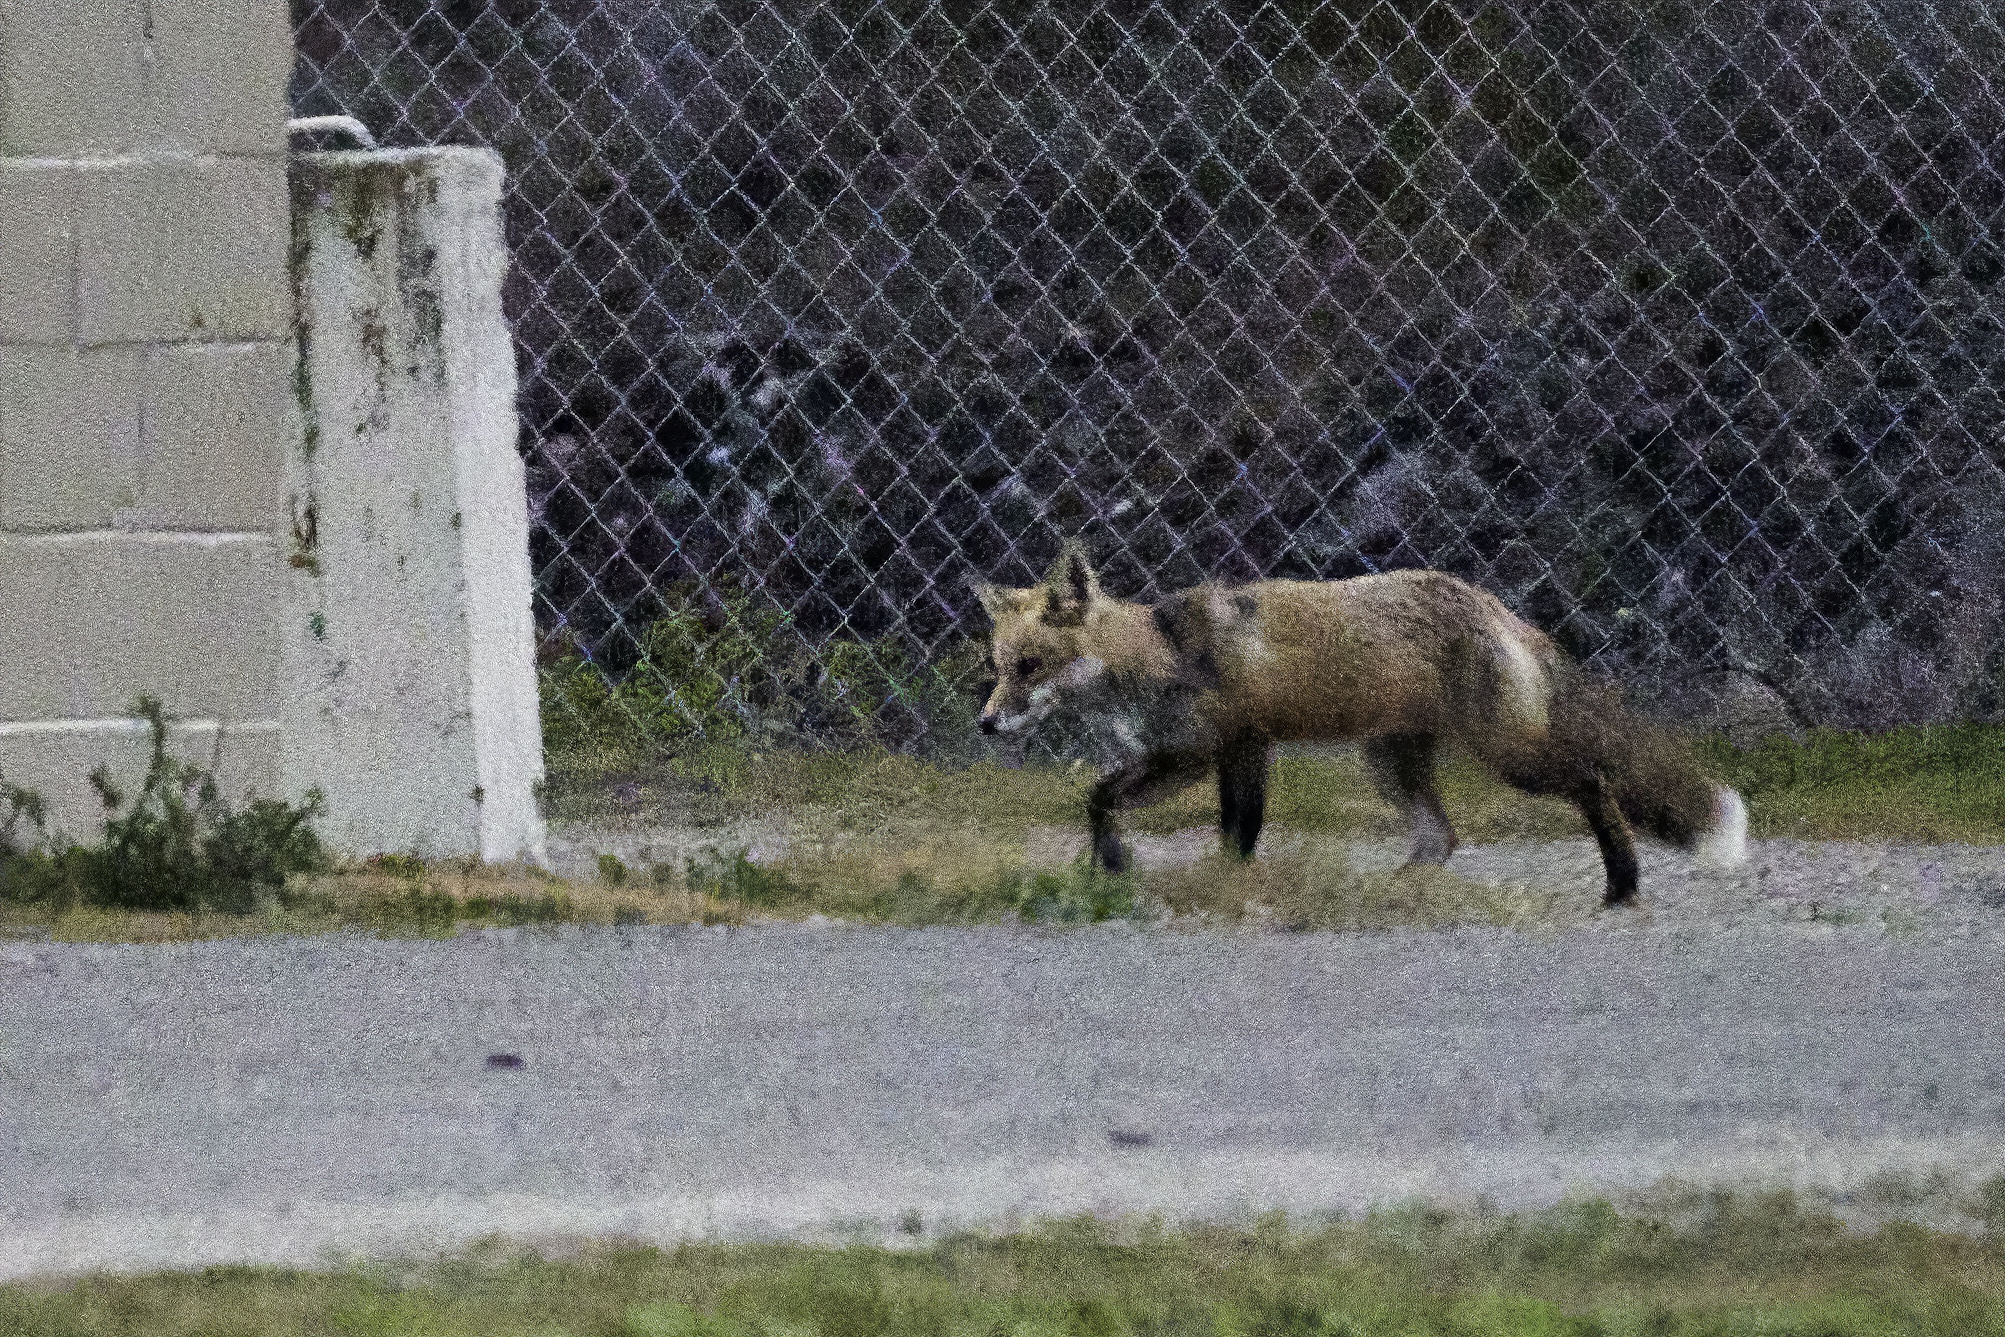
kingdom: Animalia
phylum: Chordata
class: Mammalia
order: Carnivora
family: Canidae
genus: Vulpes
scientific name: Vulpes vulpes
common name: Red fox
